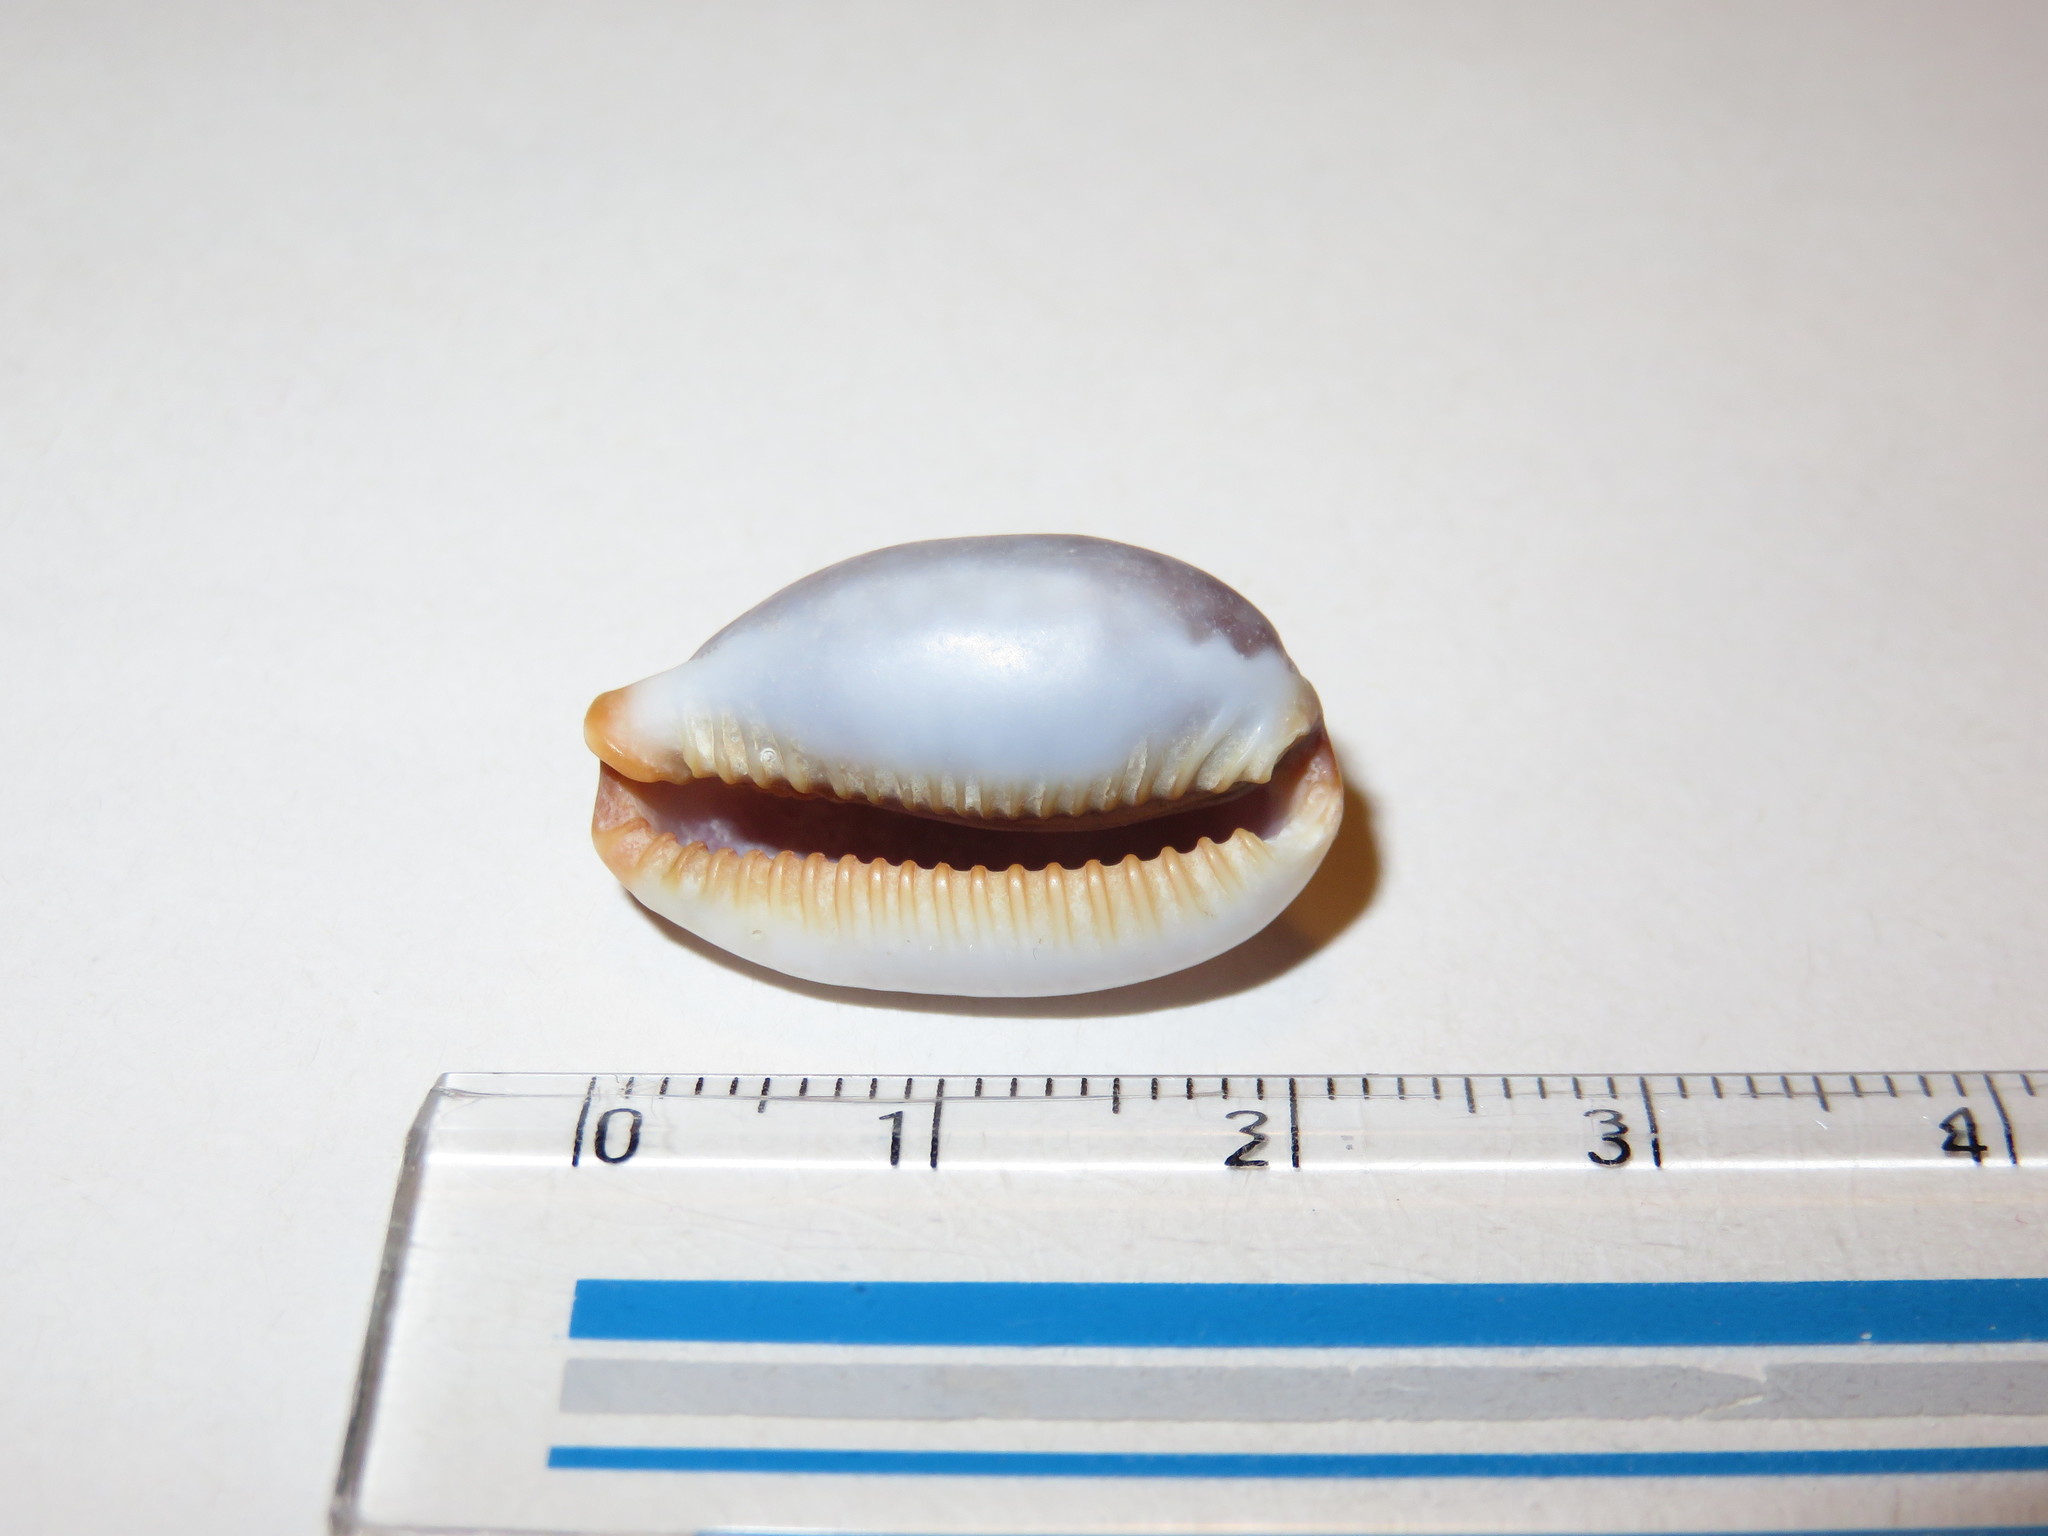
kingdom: Animalia
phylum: Mollusca
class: Gastropoda
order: Littorinimorpha
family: Cypraeidae
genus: Staphylaea
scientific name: Staphylaea limacina
